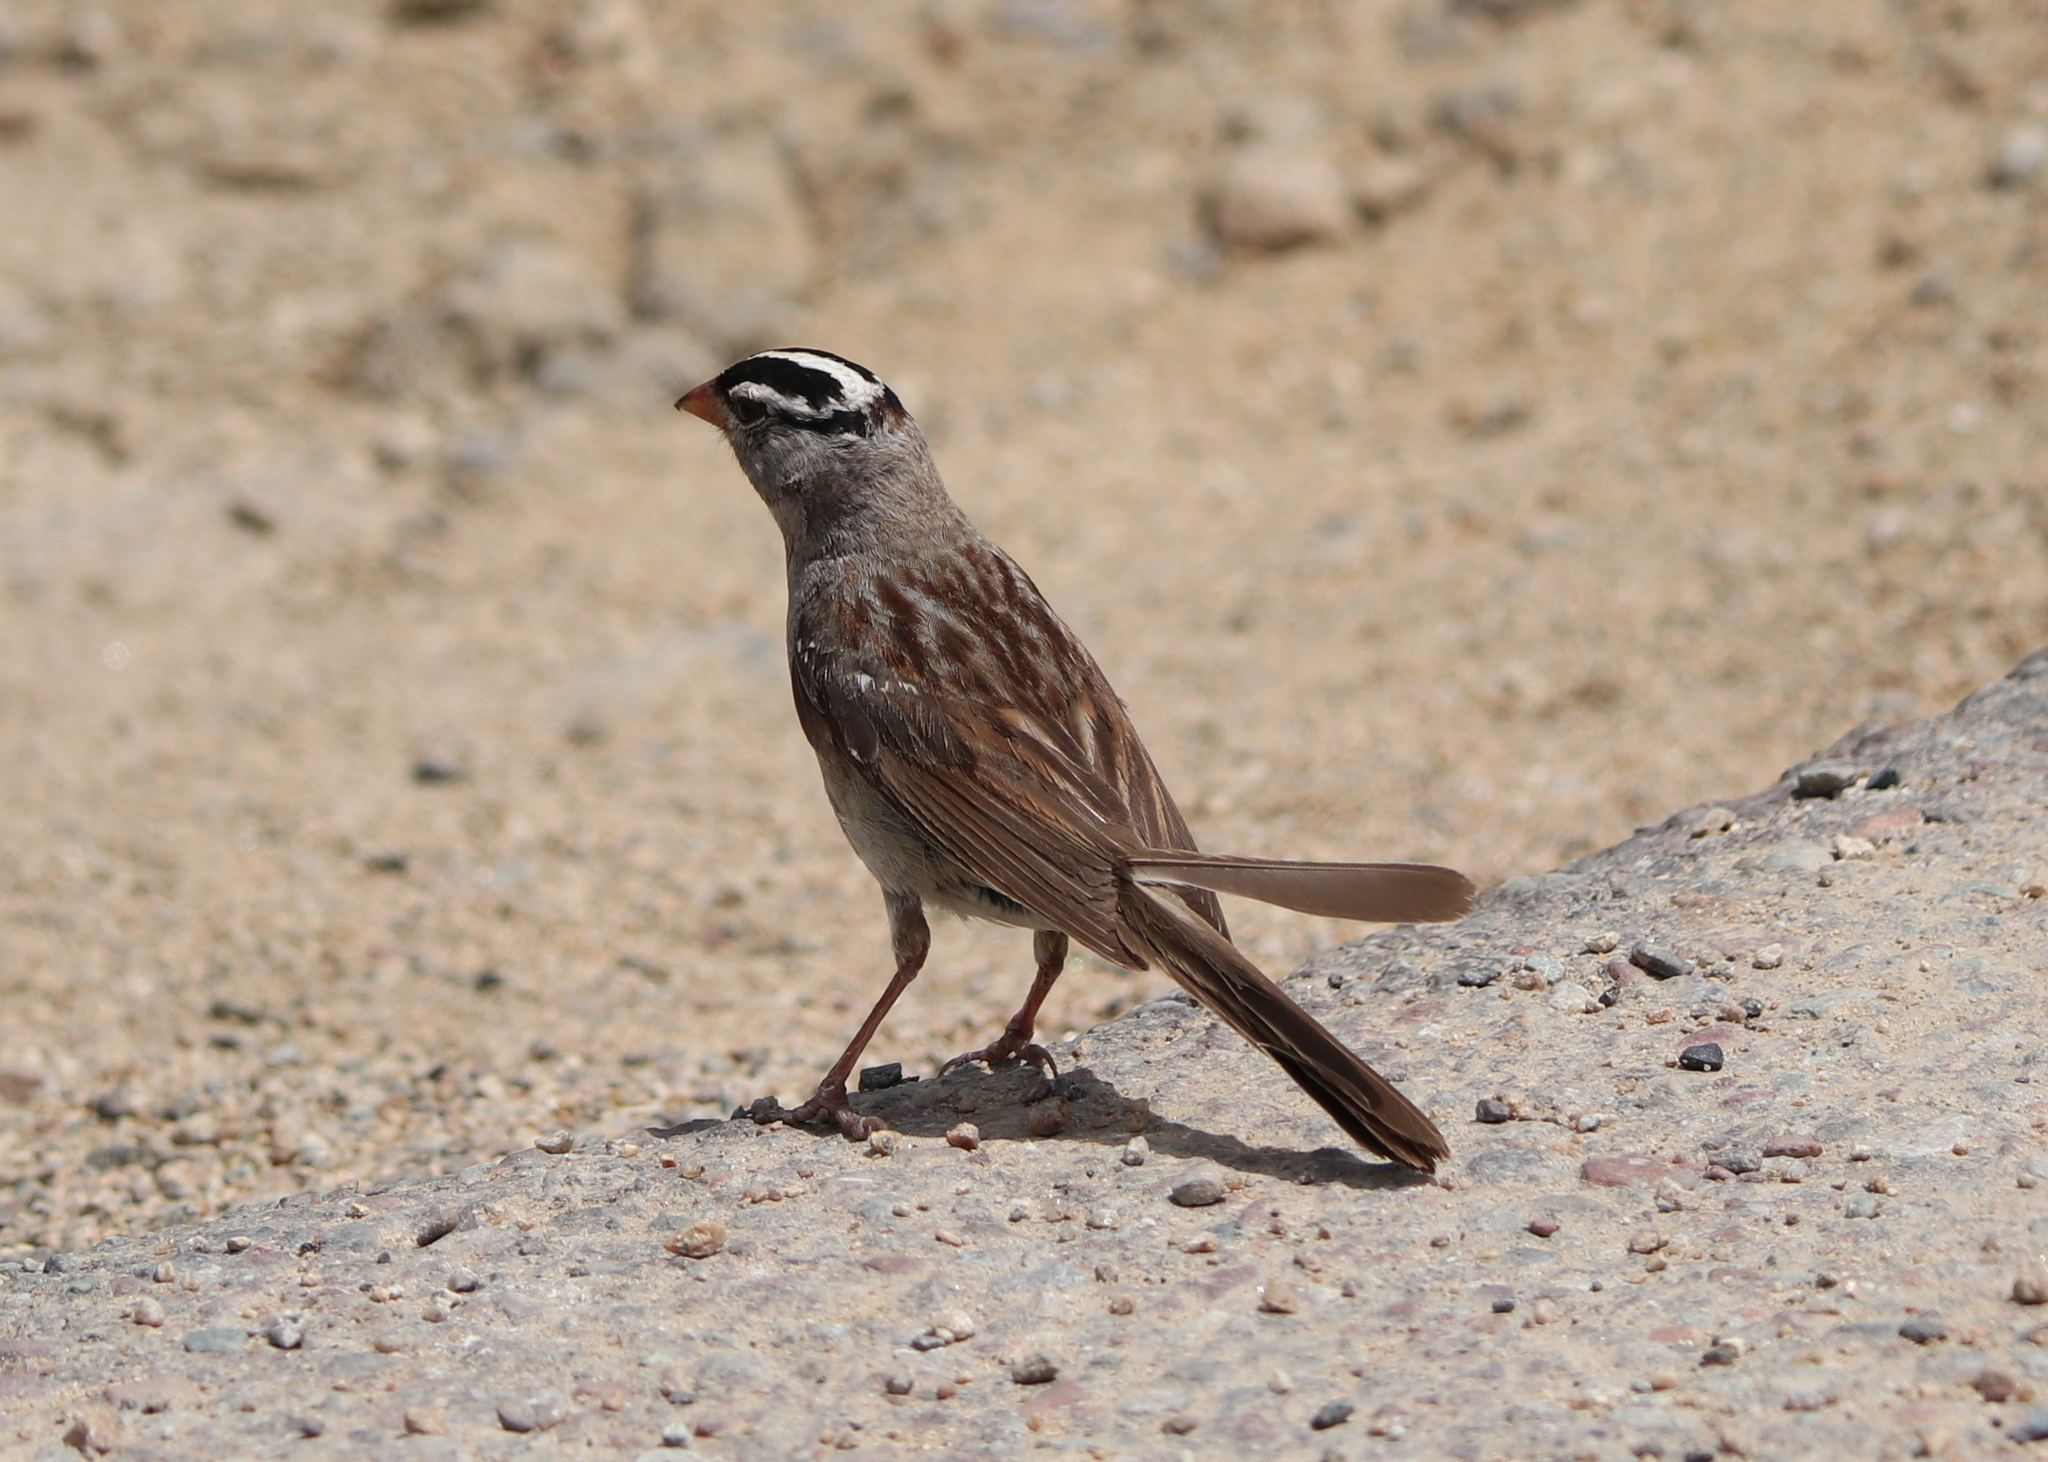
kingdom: Animalia
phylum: Chordata
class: Aves
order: Passeriformes
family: Passerellidae
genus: Zonotrichia
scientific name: Zonotrichia leucophrys
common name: White-crowned sparrow
